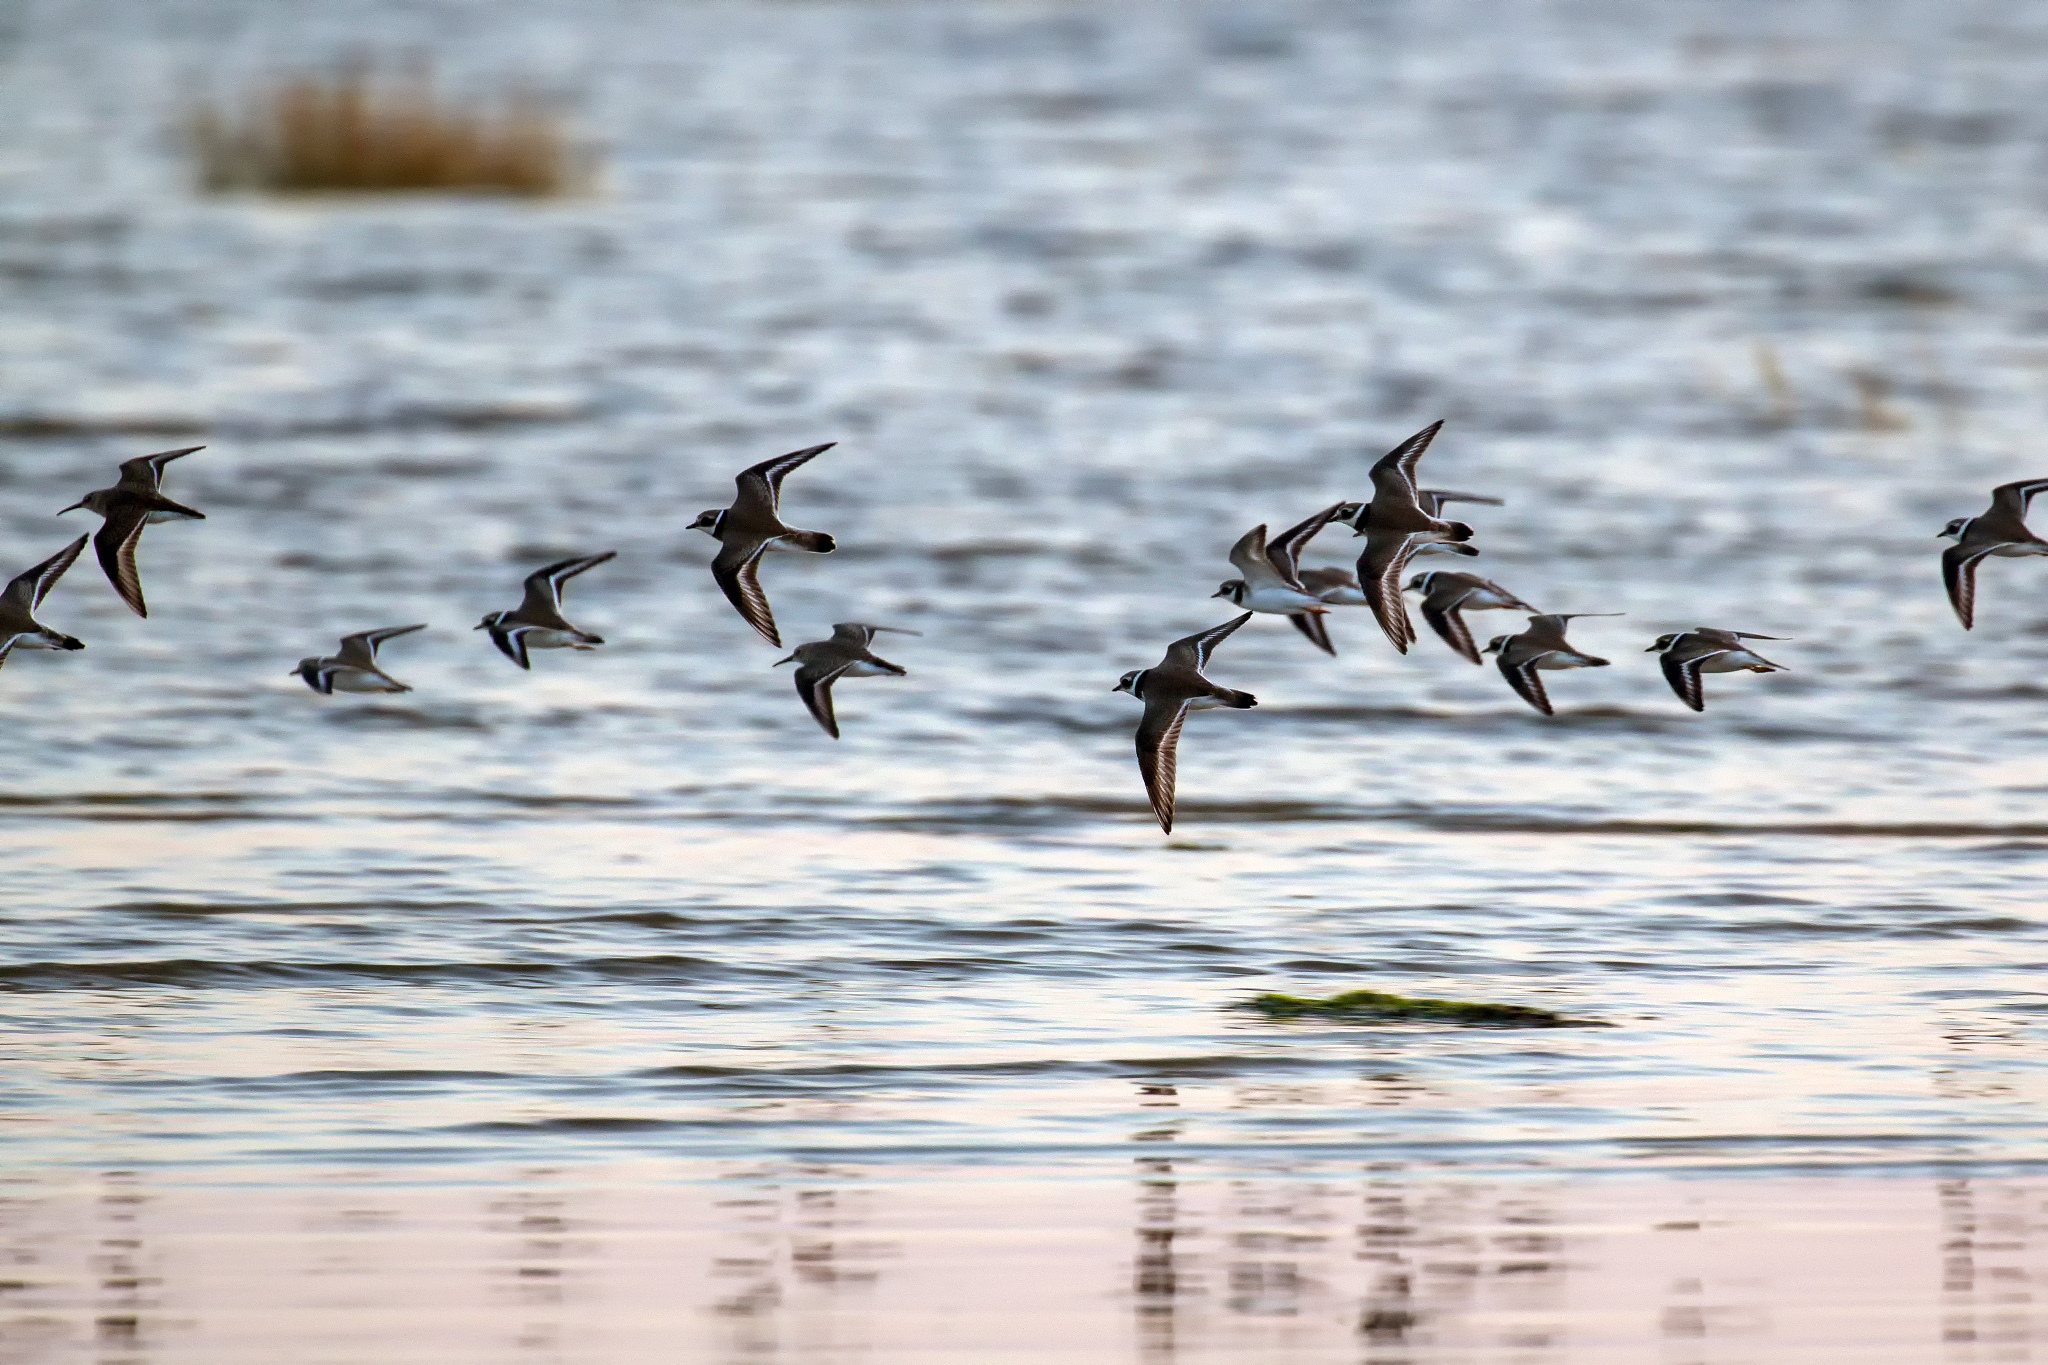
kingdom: Animalia
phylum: Chordata
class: Aves
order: Charadriiformes
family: Charadriidae
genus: Charadrius
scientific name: Charadrius hiaticula
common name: Common ringed plover
